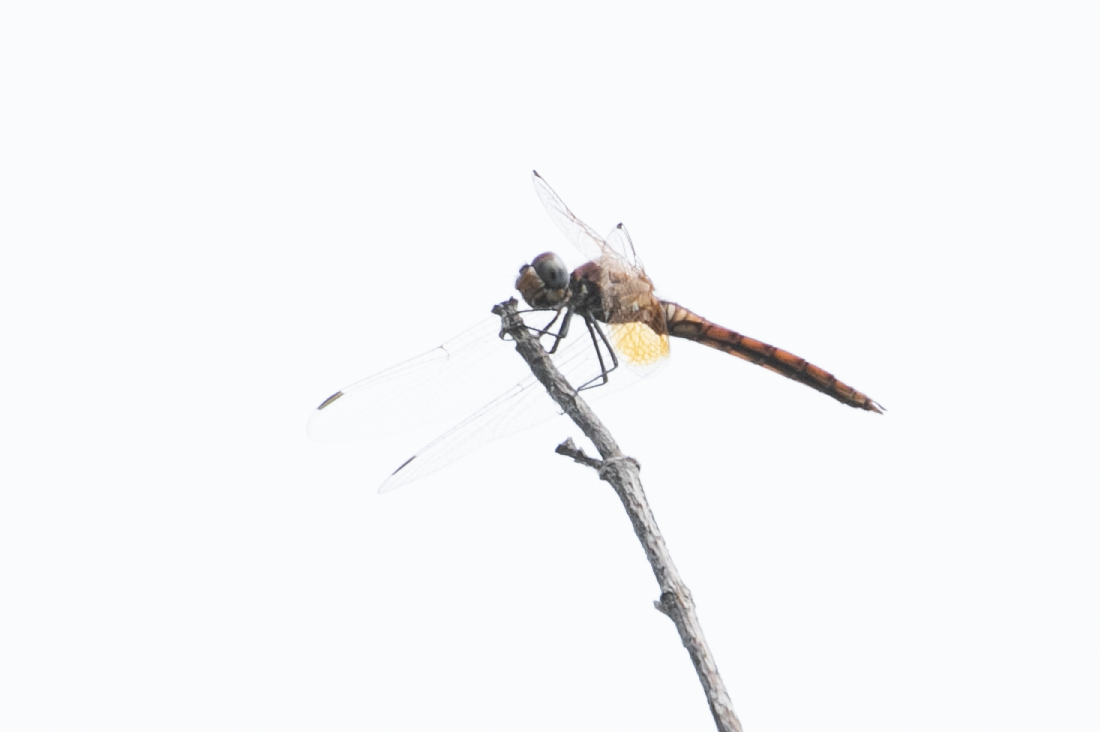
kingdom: Animalia
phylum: Arthropoda
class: Insecta
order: Odonata
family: Libellulidae
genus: Trithemis
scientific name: Trithemis annulata
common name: Violet dropwing
